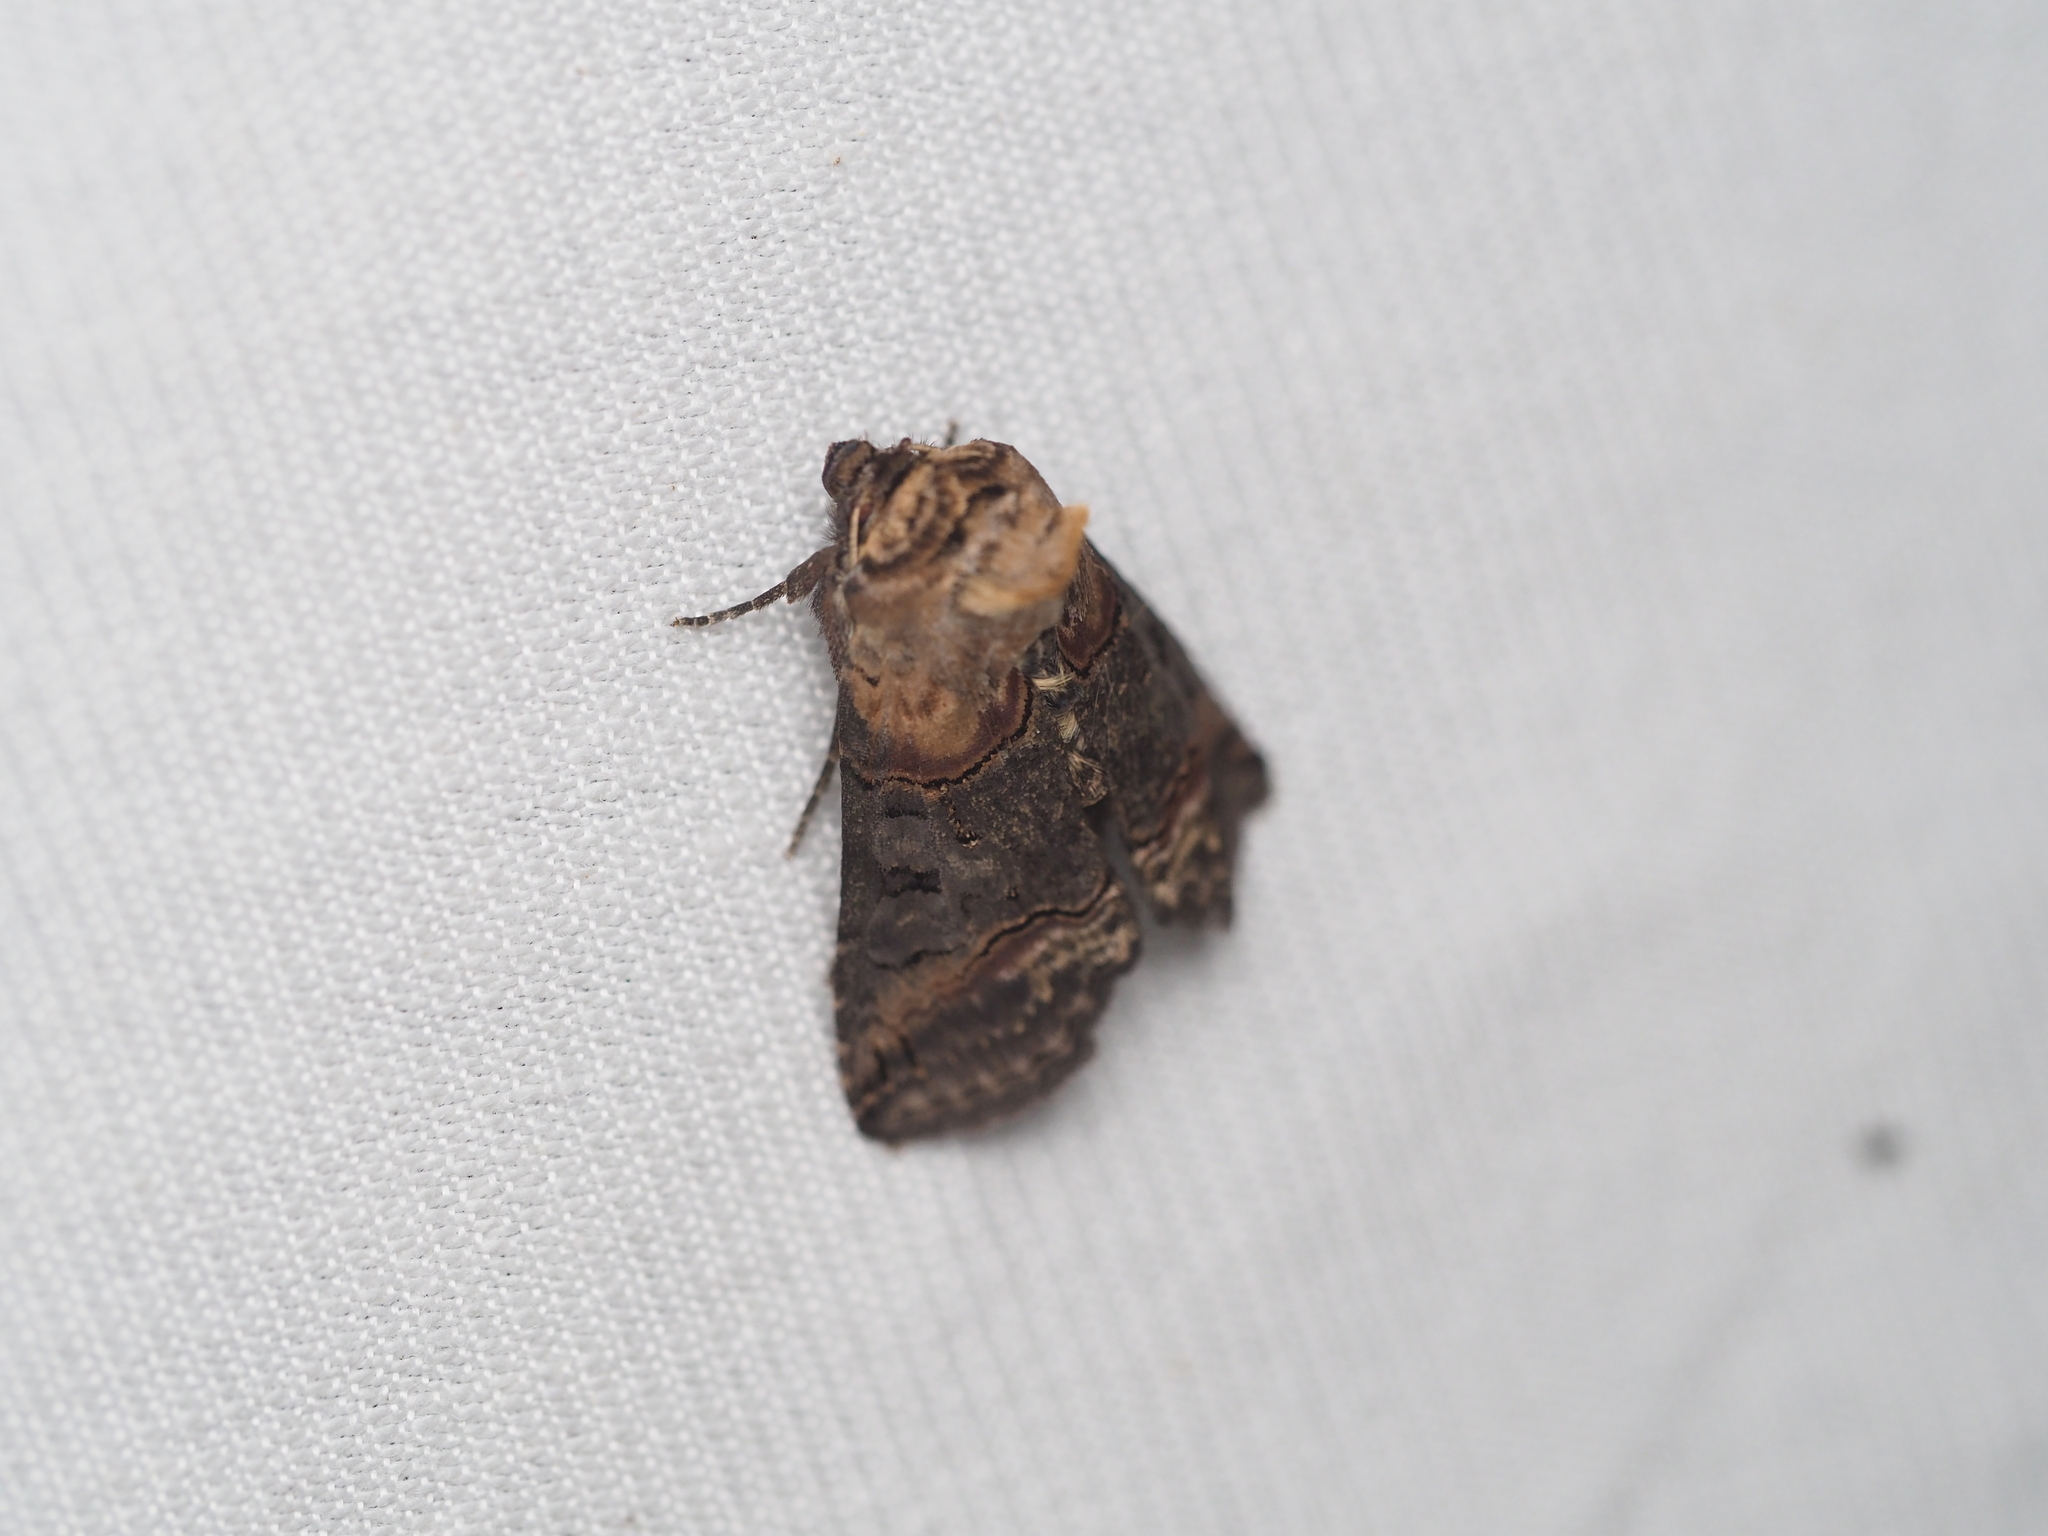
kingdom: Animalia
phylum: Arthropoda
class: Insecta
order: Lepidoptera
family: Noctuidae
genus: Abrostola
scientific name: Abrostola triplasia
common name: Dark spectacle
